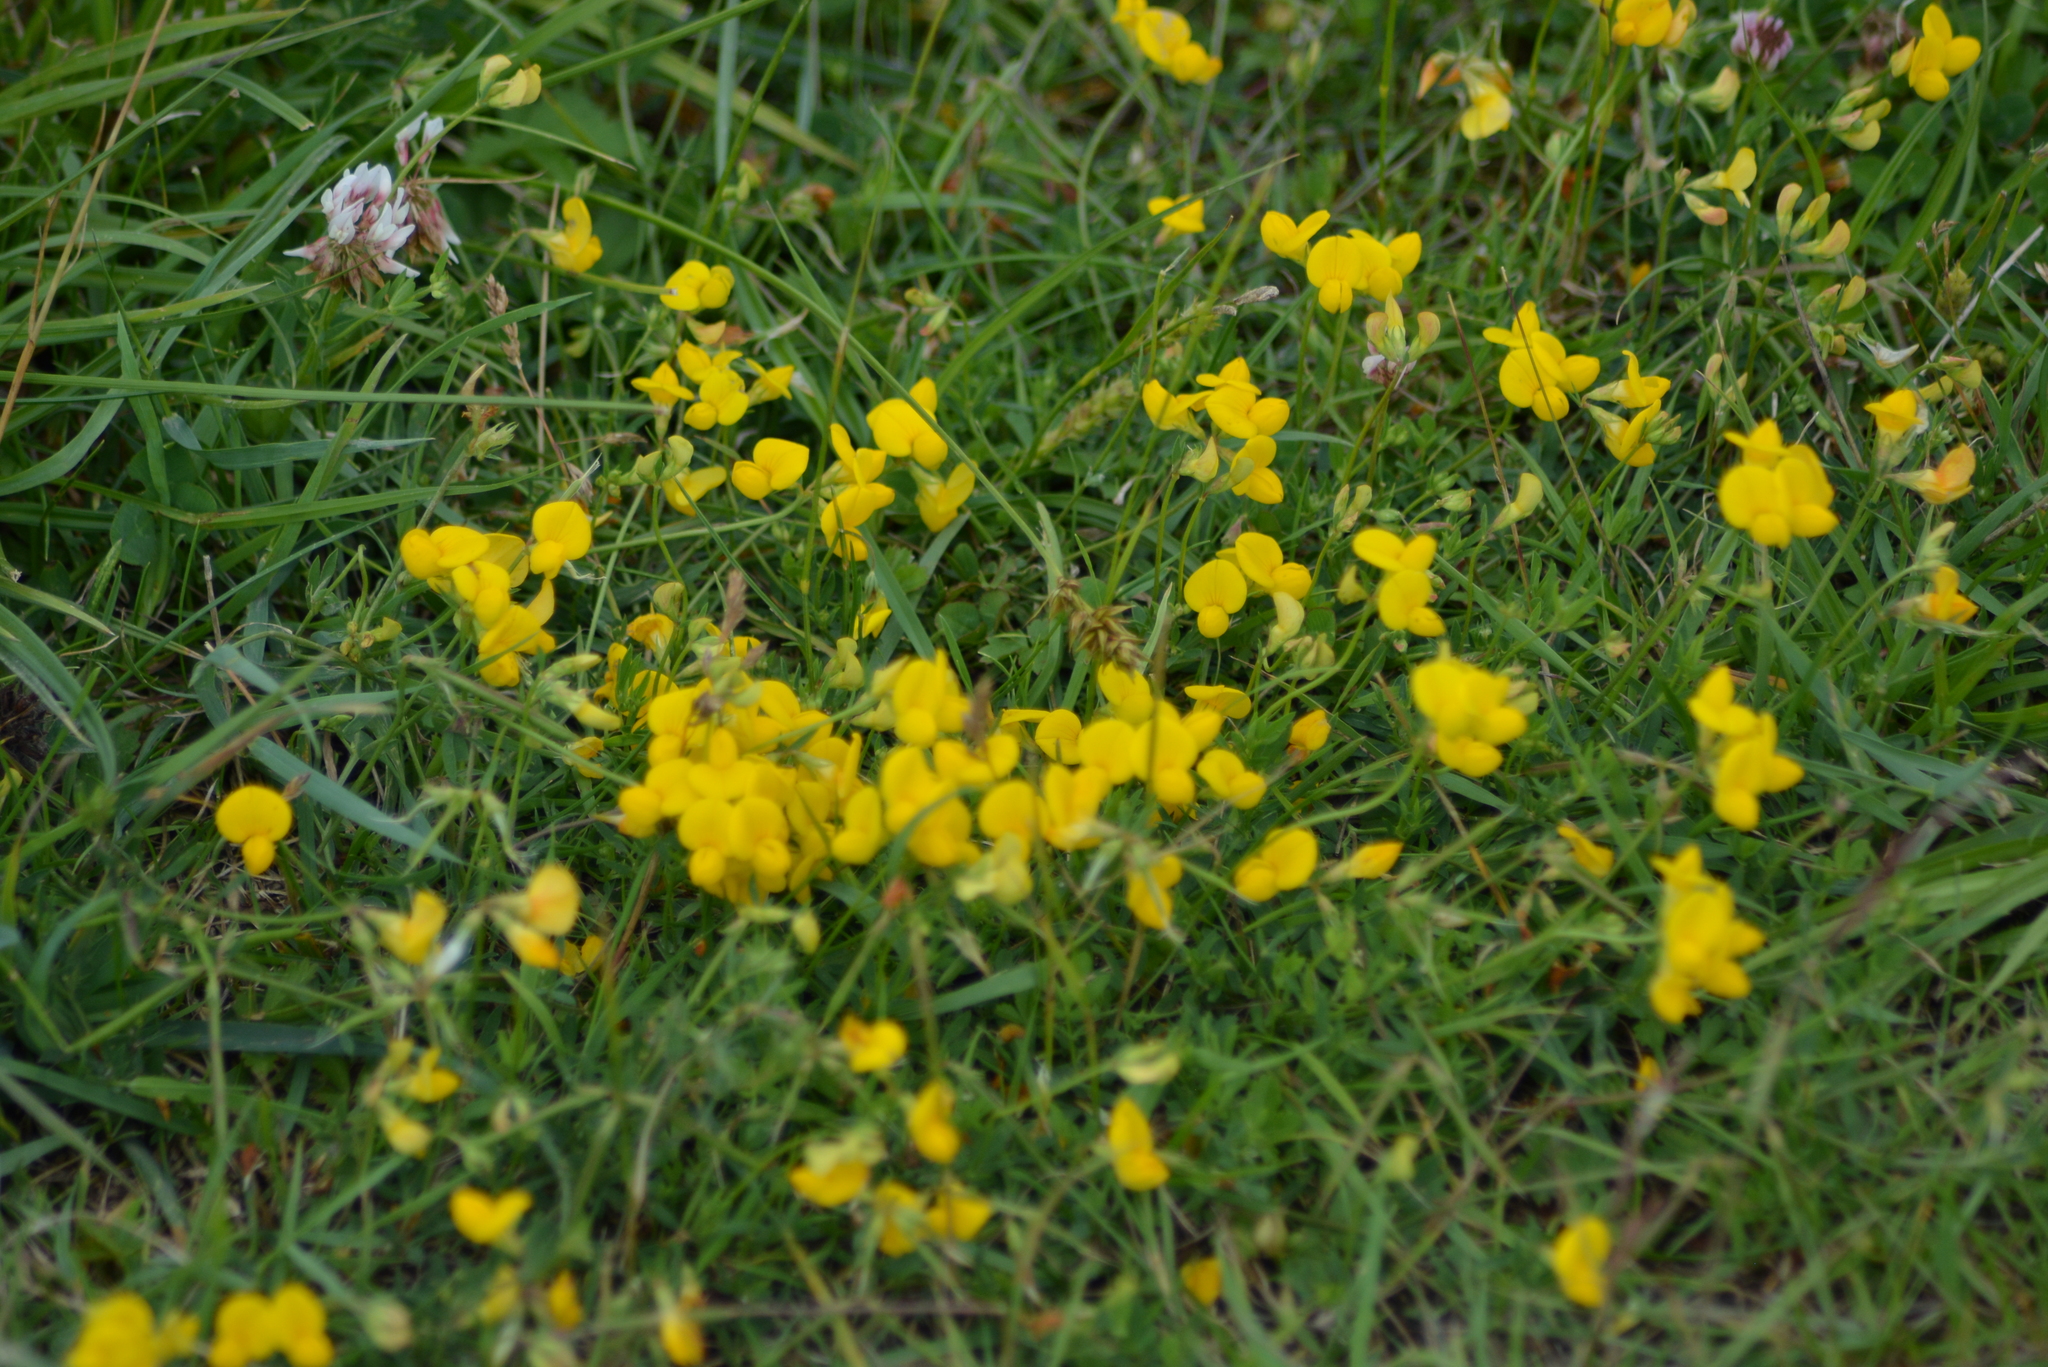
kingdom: Plantae
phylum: Tracheophyta
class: Magnoliopsida
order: Fabales
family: Fabaceae
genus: Lotus
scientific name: Lotus tenuis
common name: Narrow-leaved bird's-foot-trefoil
